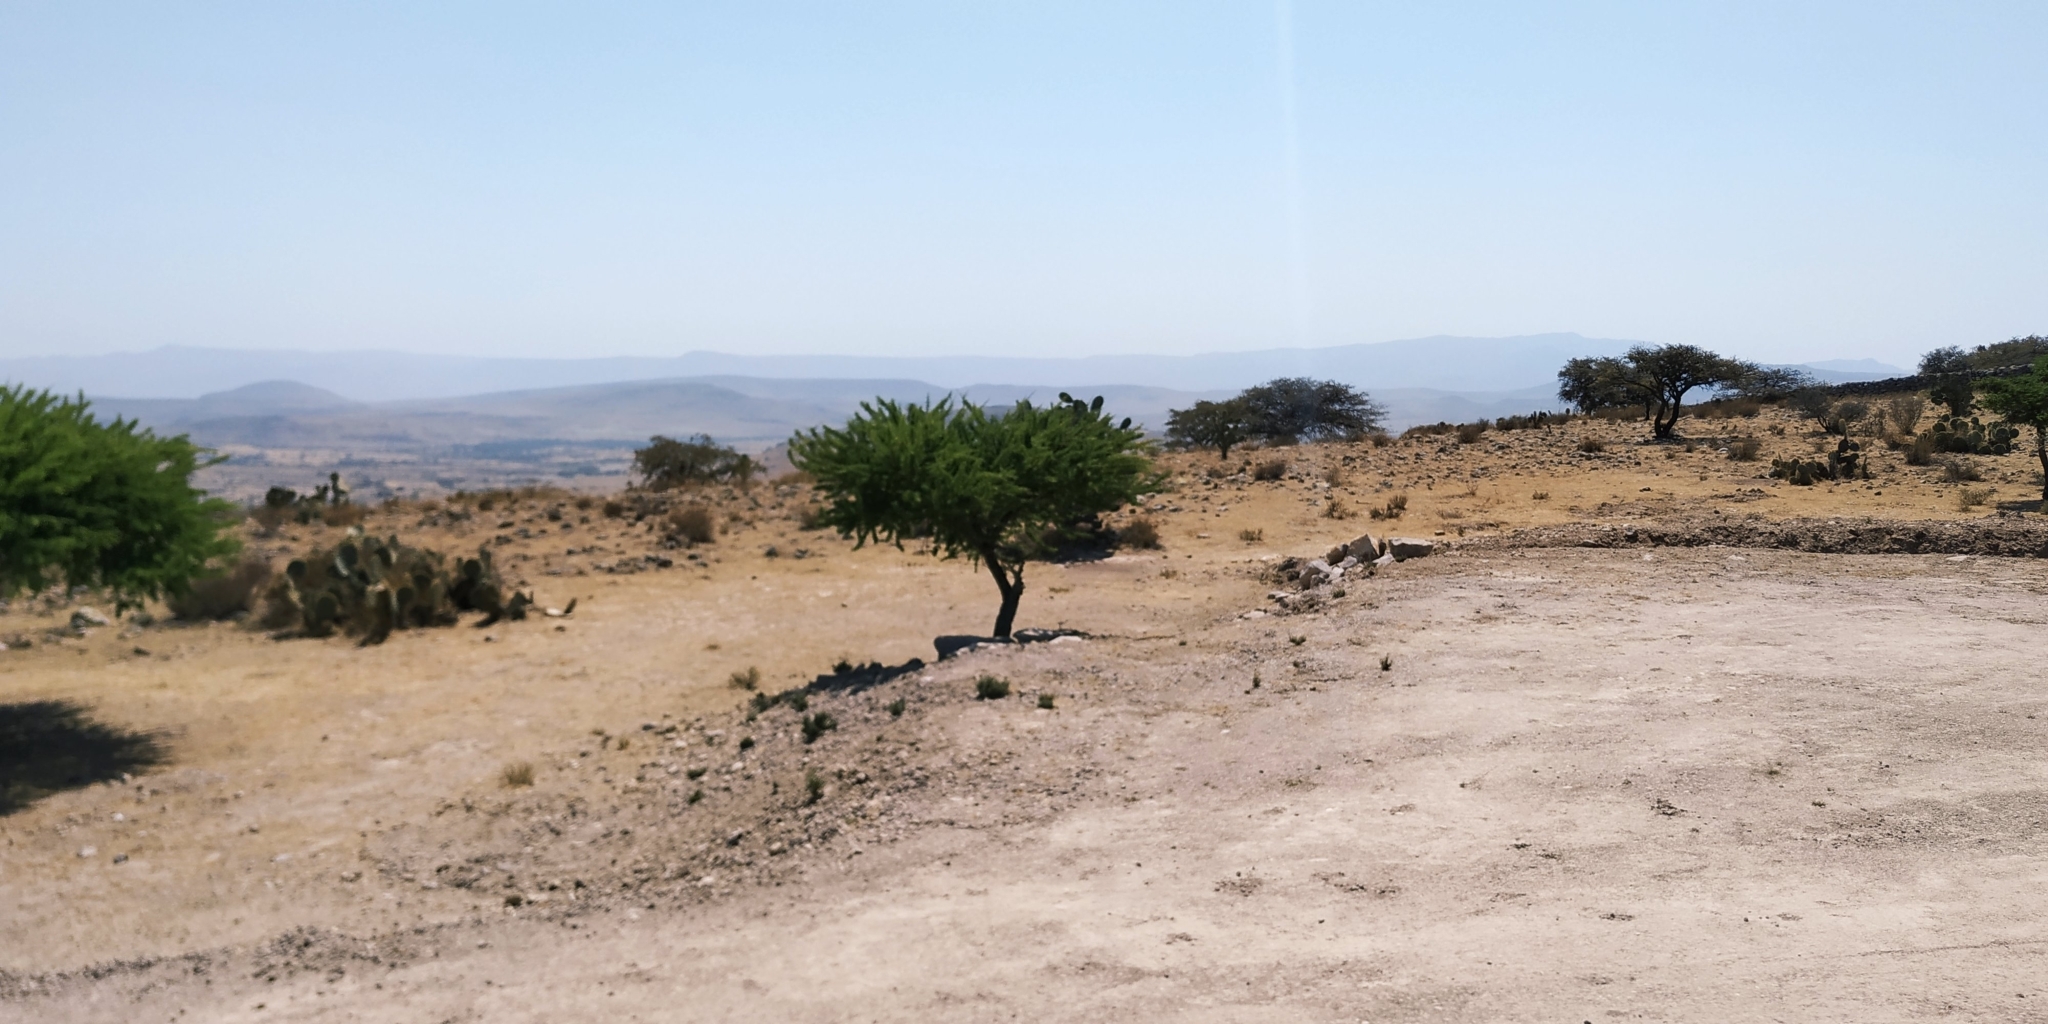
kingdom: Plantae
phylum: Tracheophyta
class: Magnoliopsida
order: Fabales
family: Fabaceae
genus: Vachellia
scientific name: Vachellia schaffneri
